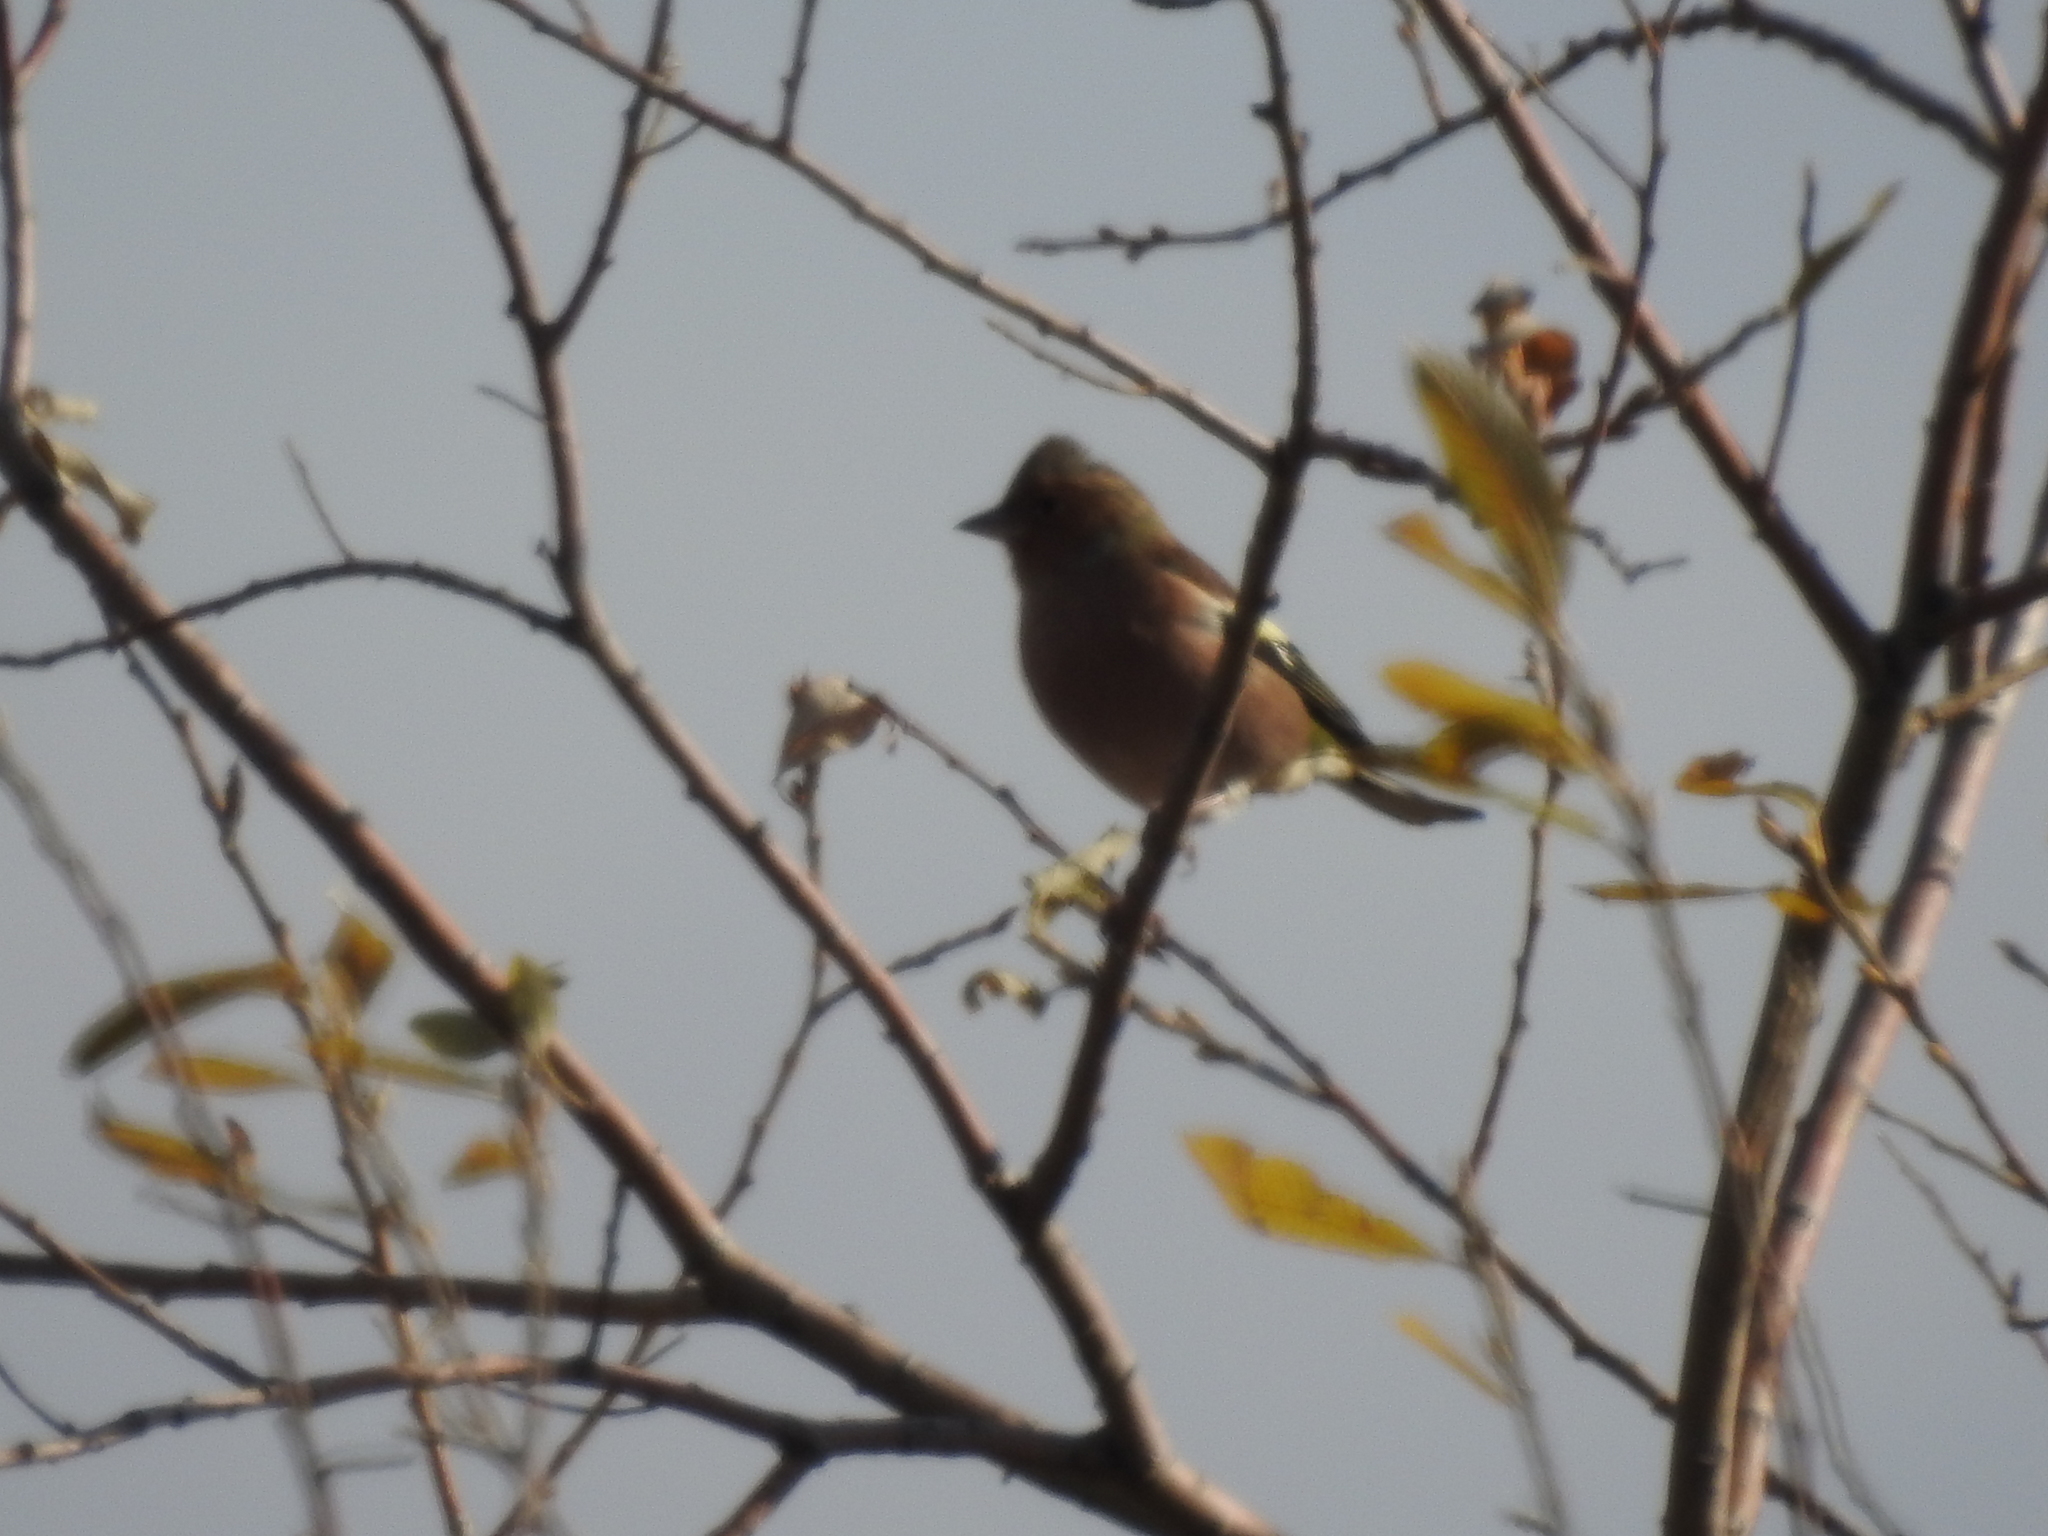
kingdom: Animalia
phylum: Chordata
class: Aves
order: Passeriformes
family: Fringillidae
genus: Fringilla
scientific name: Fringilla coelebs
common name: Common chaffinch
